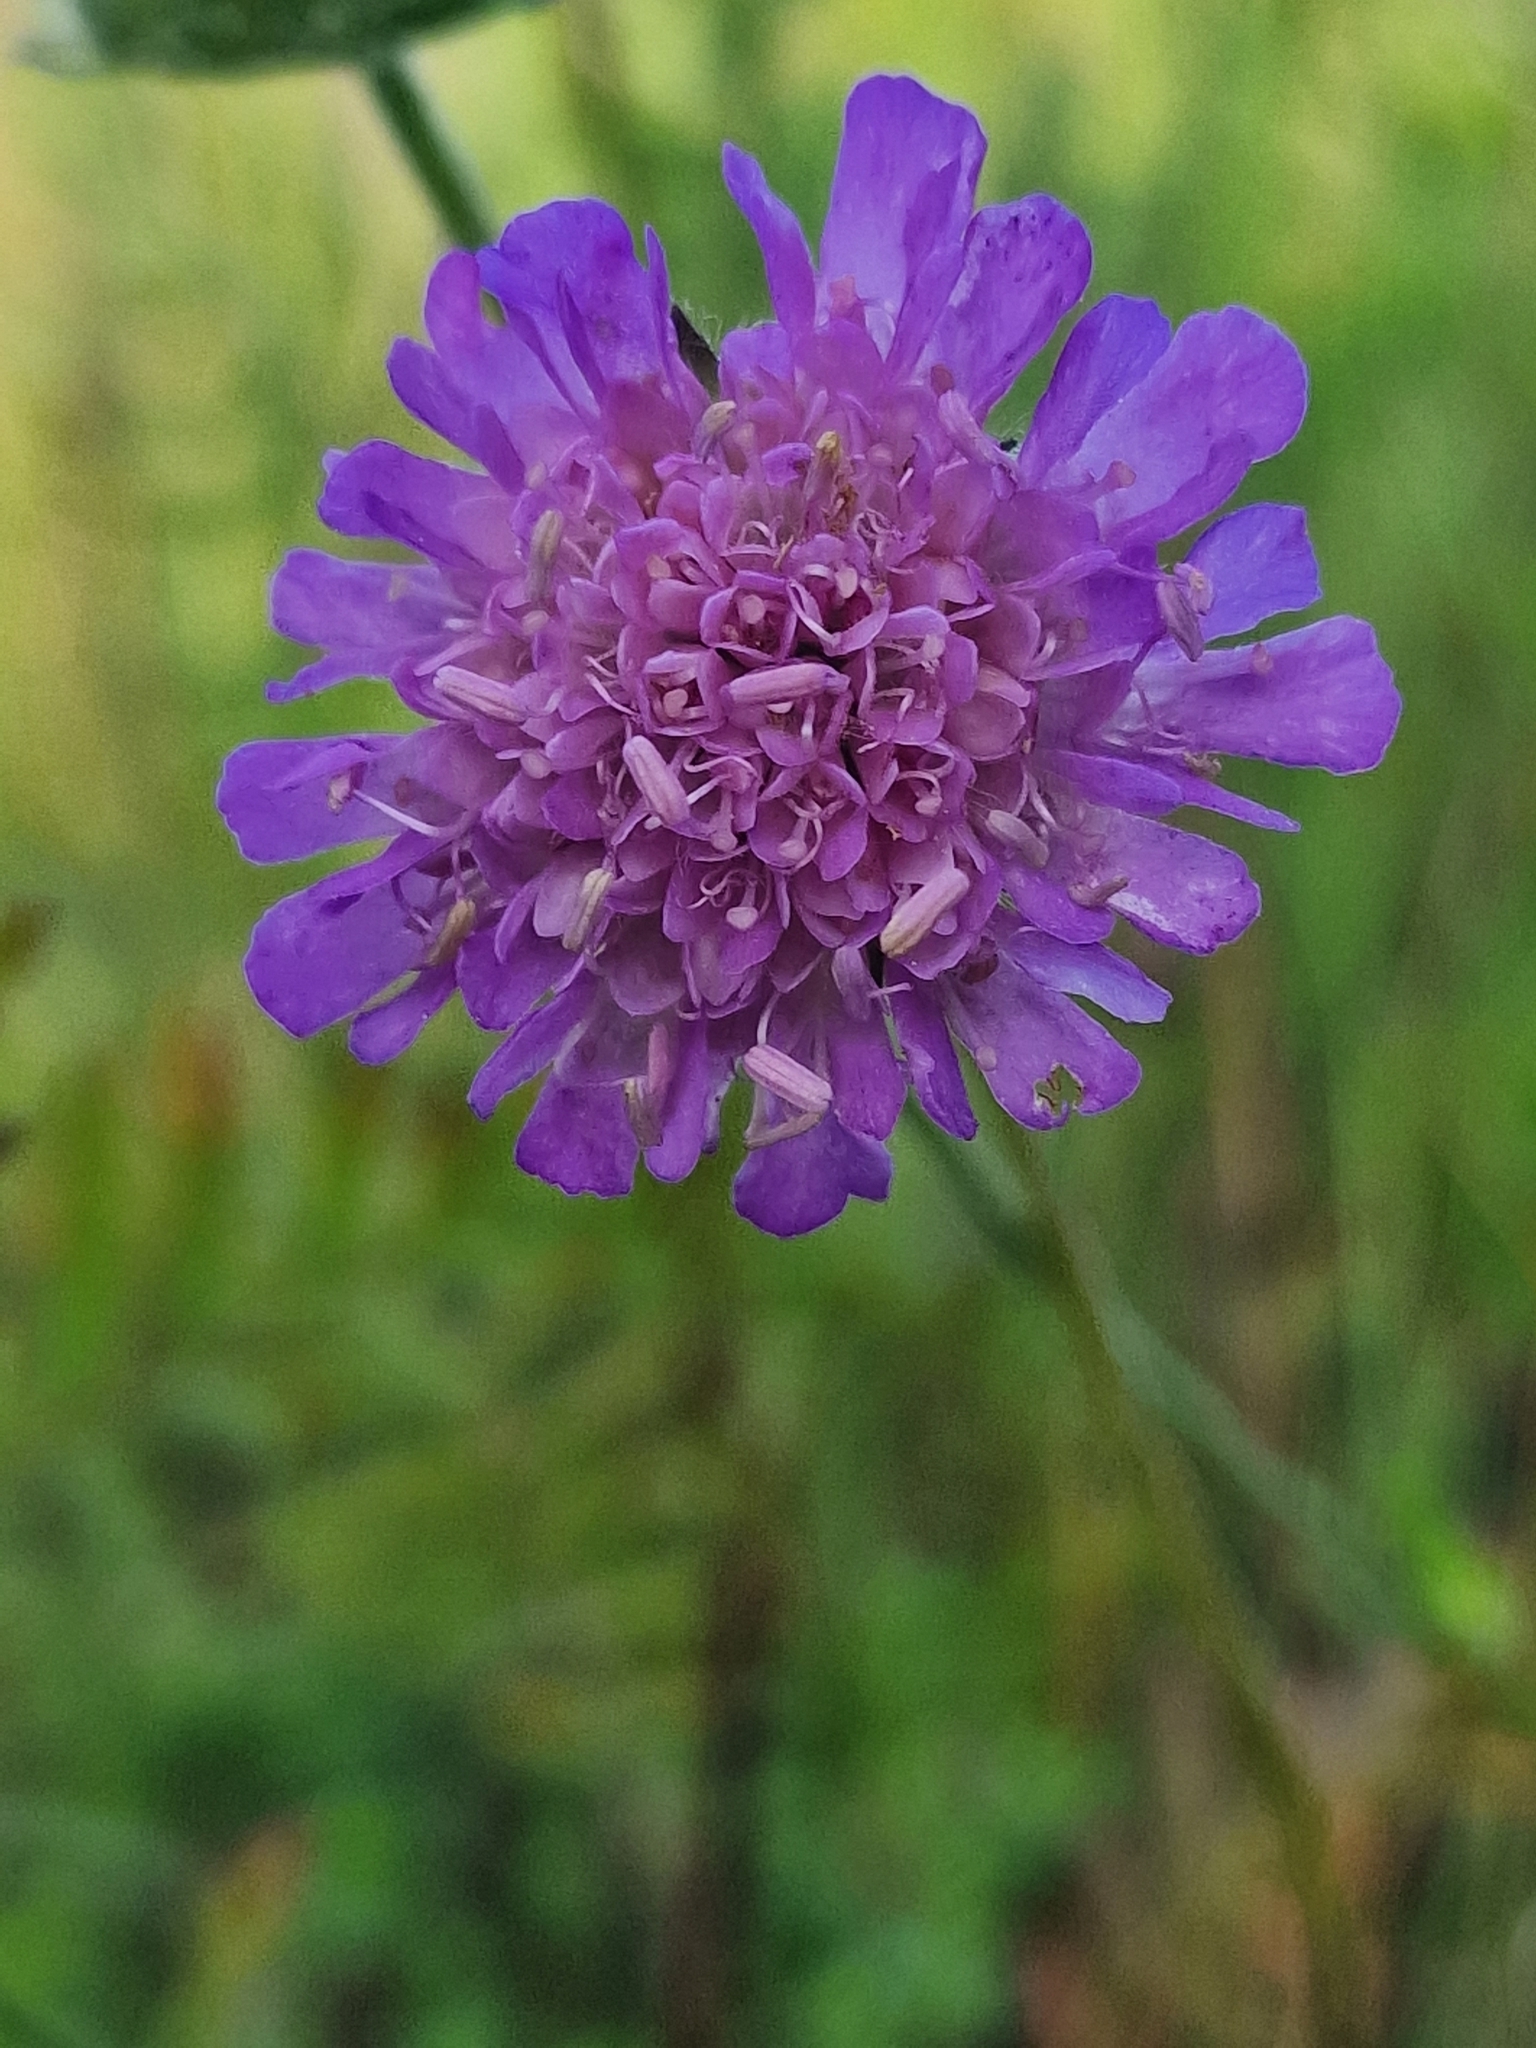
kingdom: Plantae
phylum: Tracheophyta
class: Magnoliopsida
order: Dipsacales
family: Caprifoliaceae
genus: Knautia
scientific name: Knautia arvensis
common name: Field scabiosa
